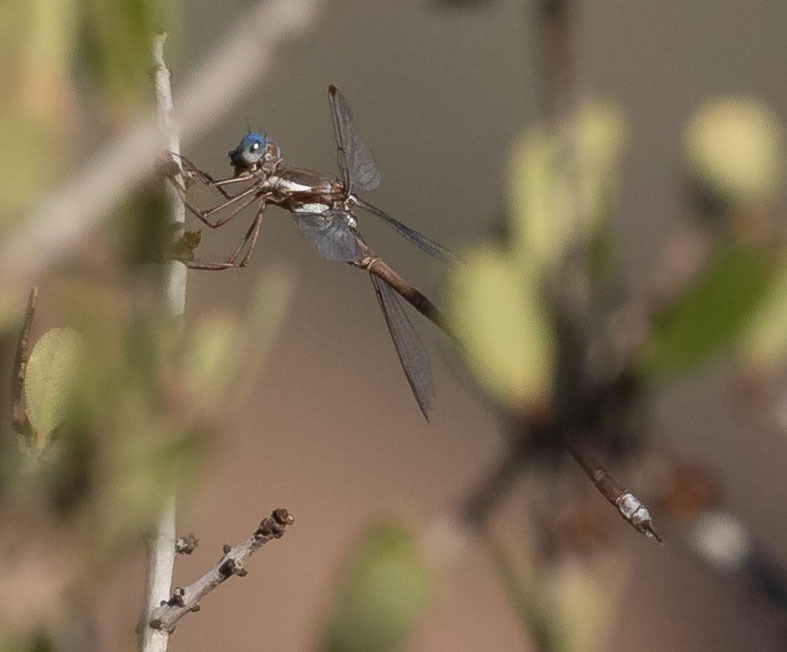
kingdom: Animalia
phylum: Arthropoda
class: Insecta
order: Odonata
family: Lestidae
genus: Archilestes
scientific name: Archilestes californicus
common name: California spreadwing
